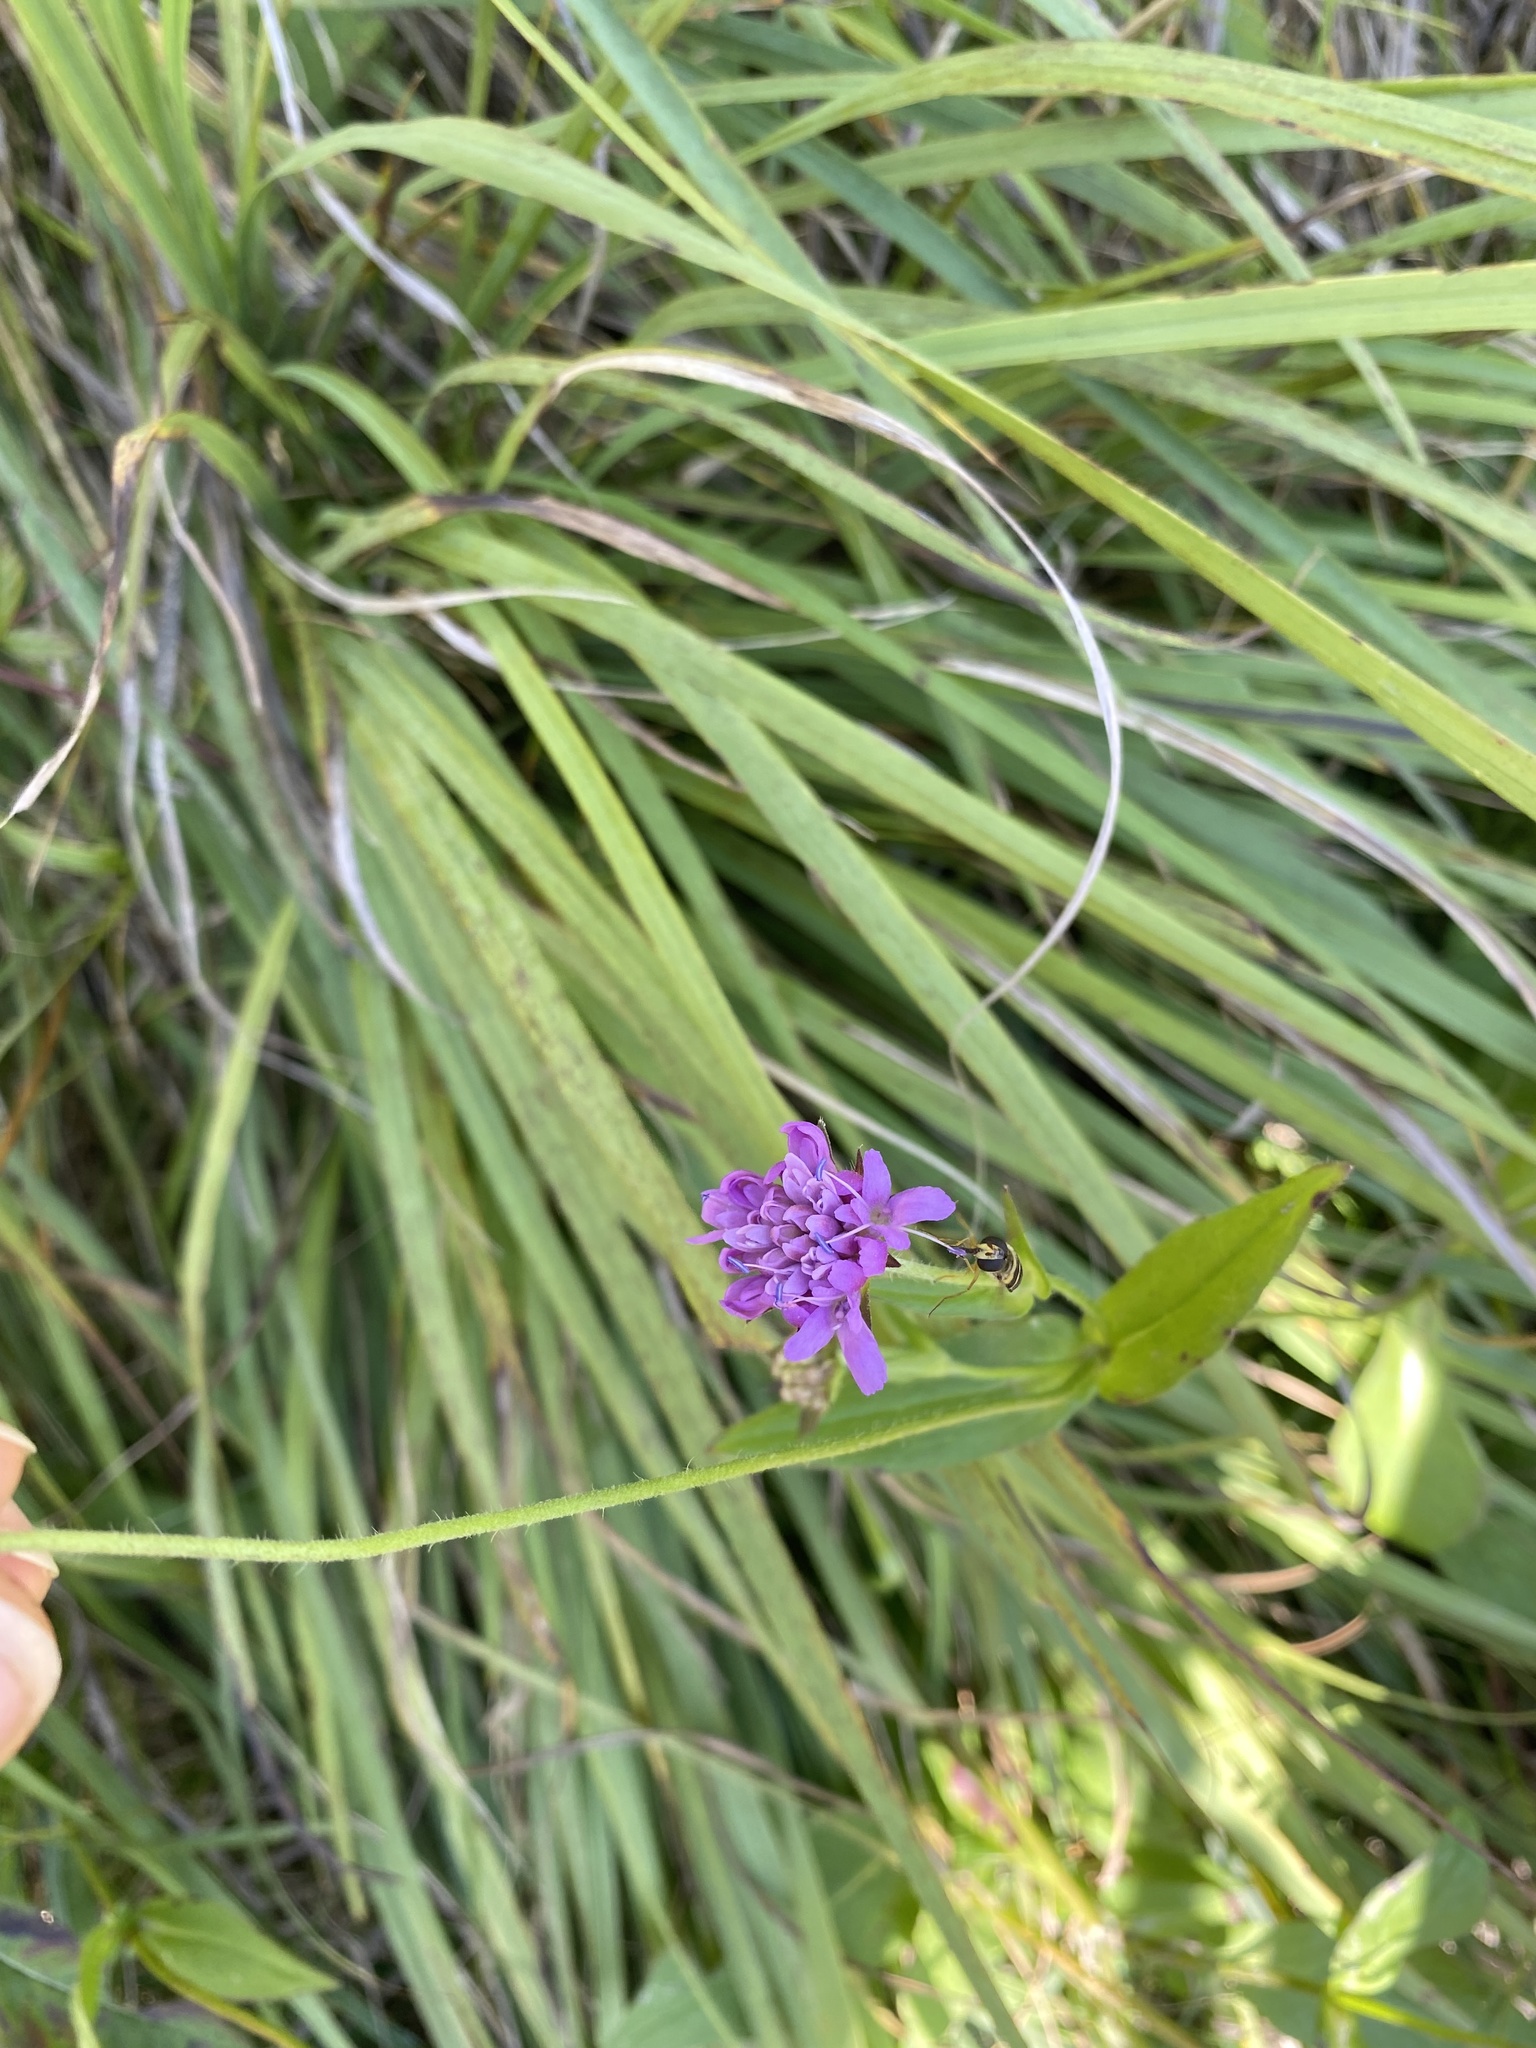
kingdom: Plantae
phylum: Tracheophyta
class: Magnoliopsida
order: Dipsacales
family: Caprifoliaceae
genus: Knautia
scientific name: Knautia dipsacifolia
